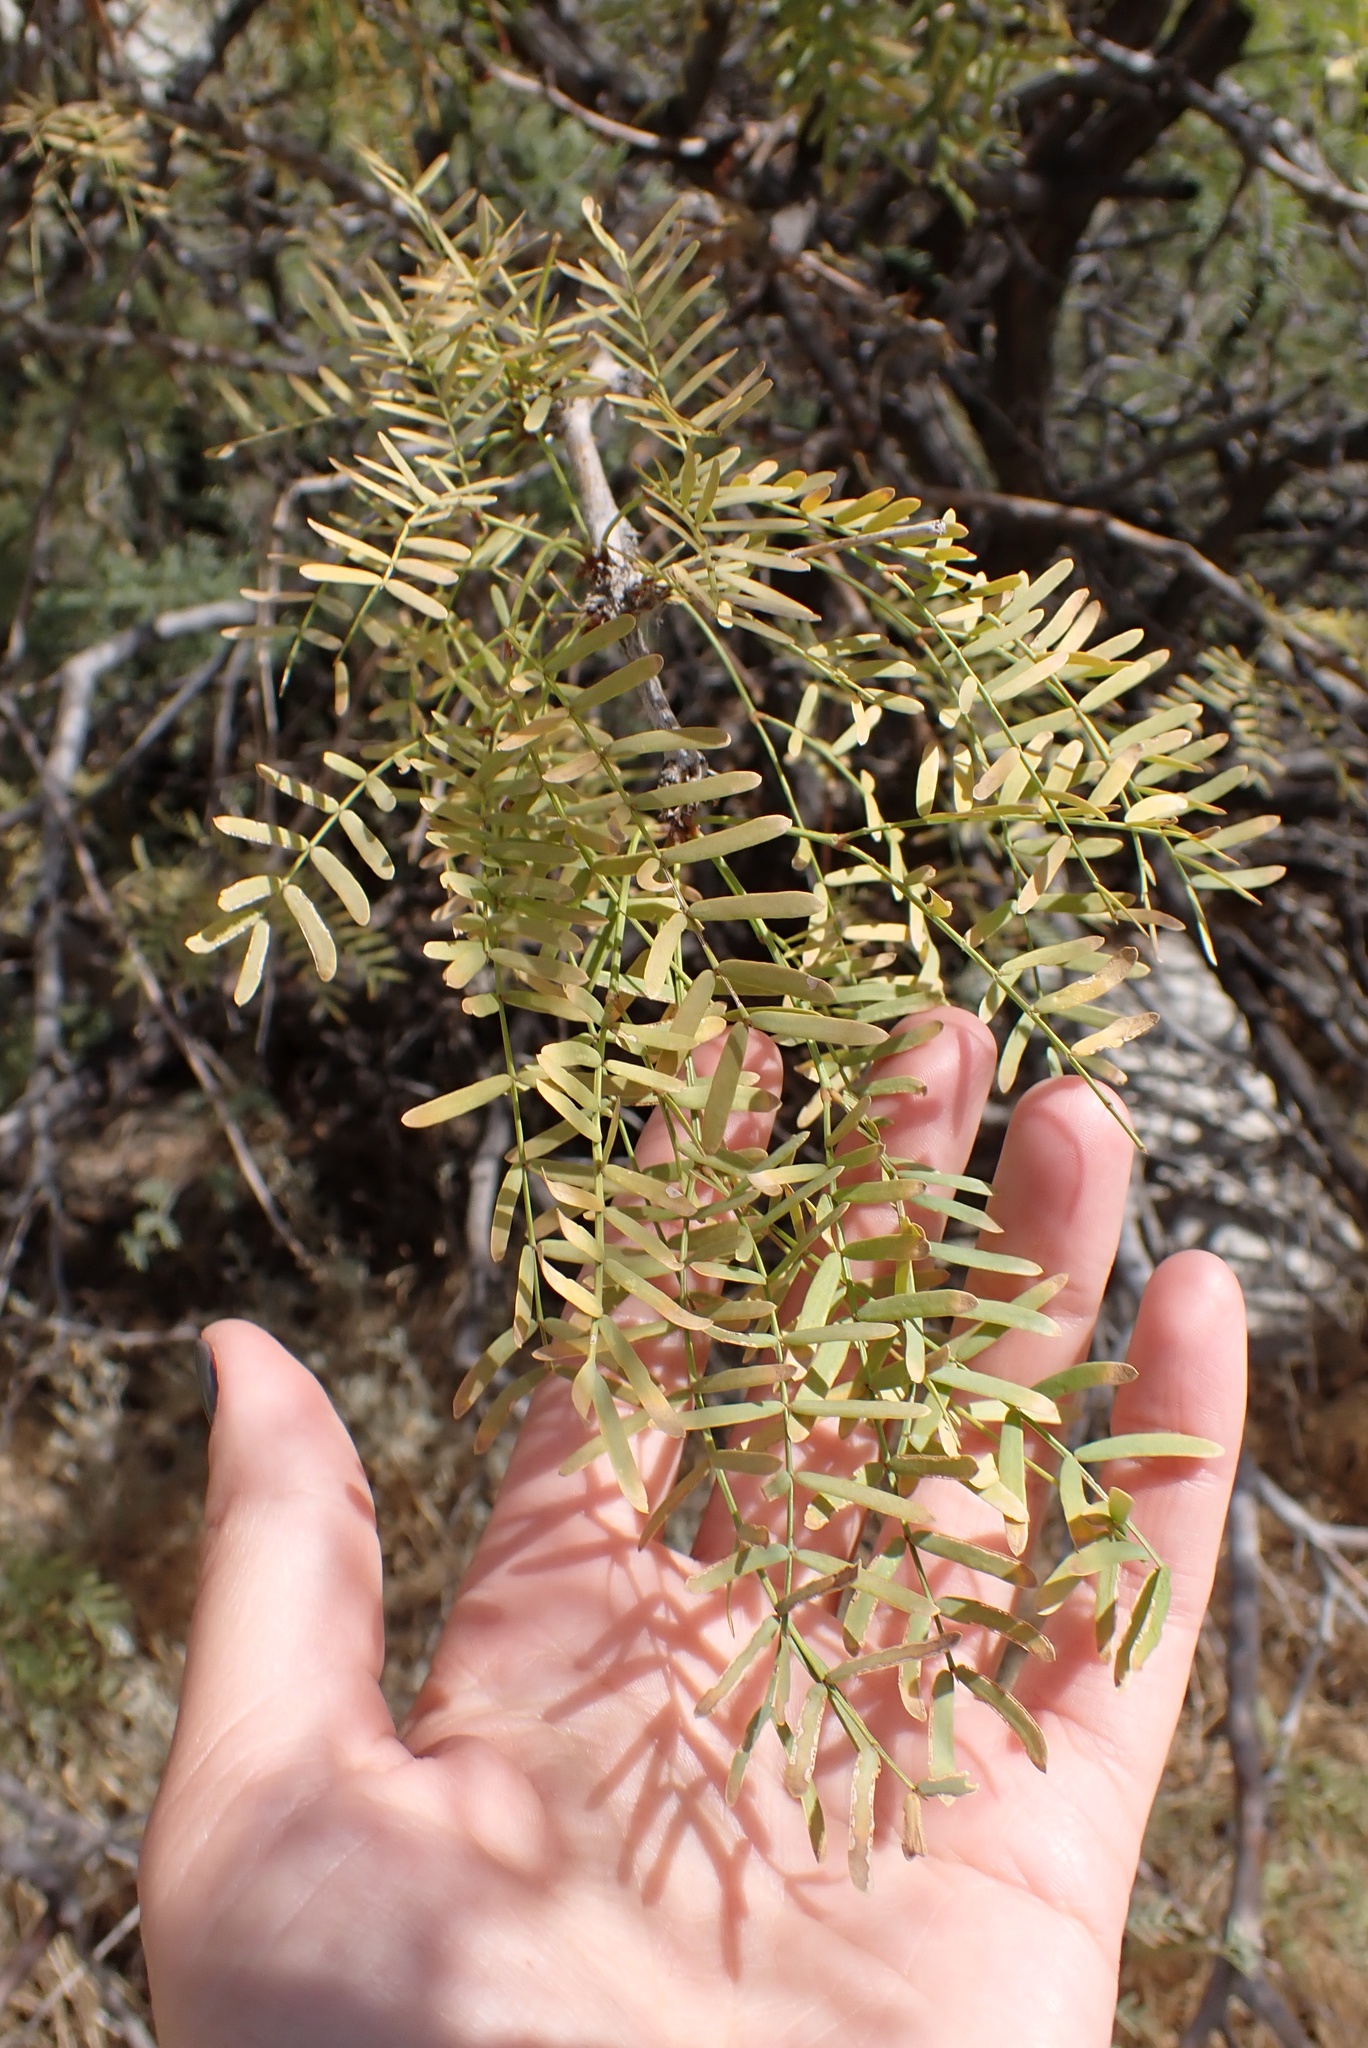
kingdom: Plantae
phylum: Tracheophyta
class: Magnoliopsida
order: Fabales
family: Fabaceae
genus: Prosopis
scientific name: Prosopis pubescens
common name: Screw-bean
